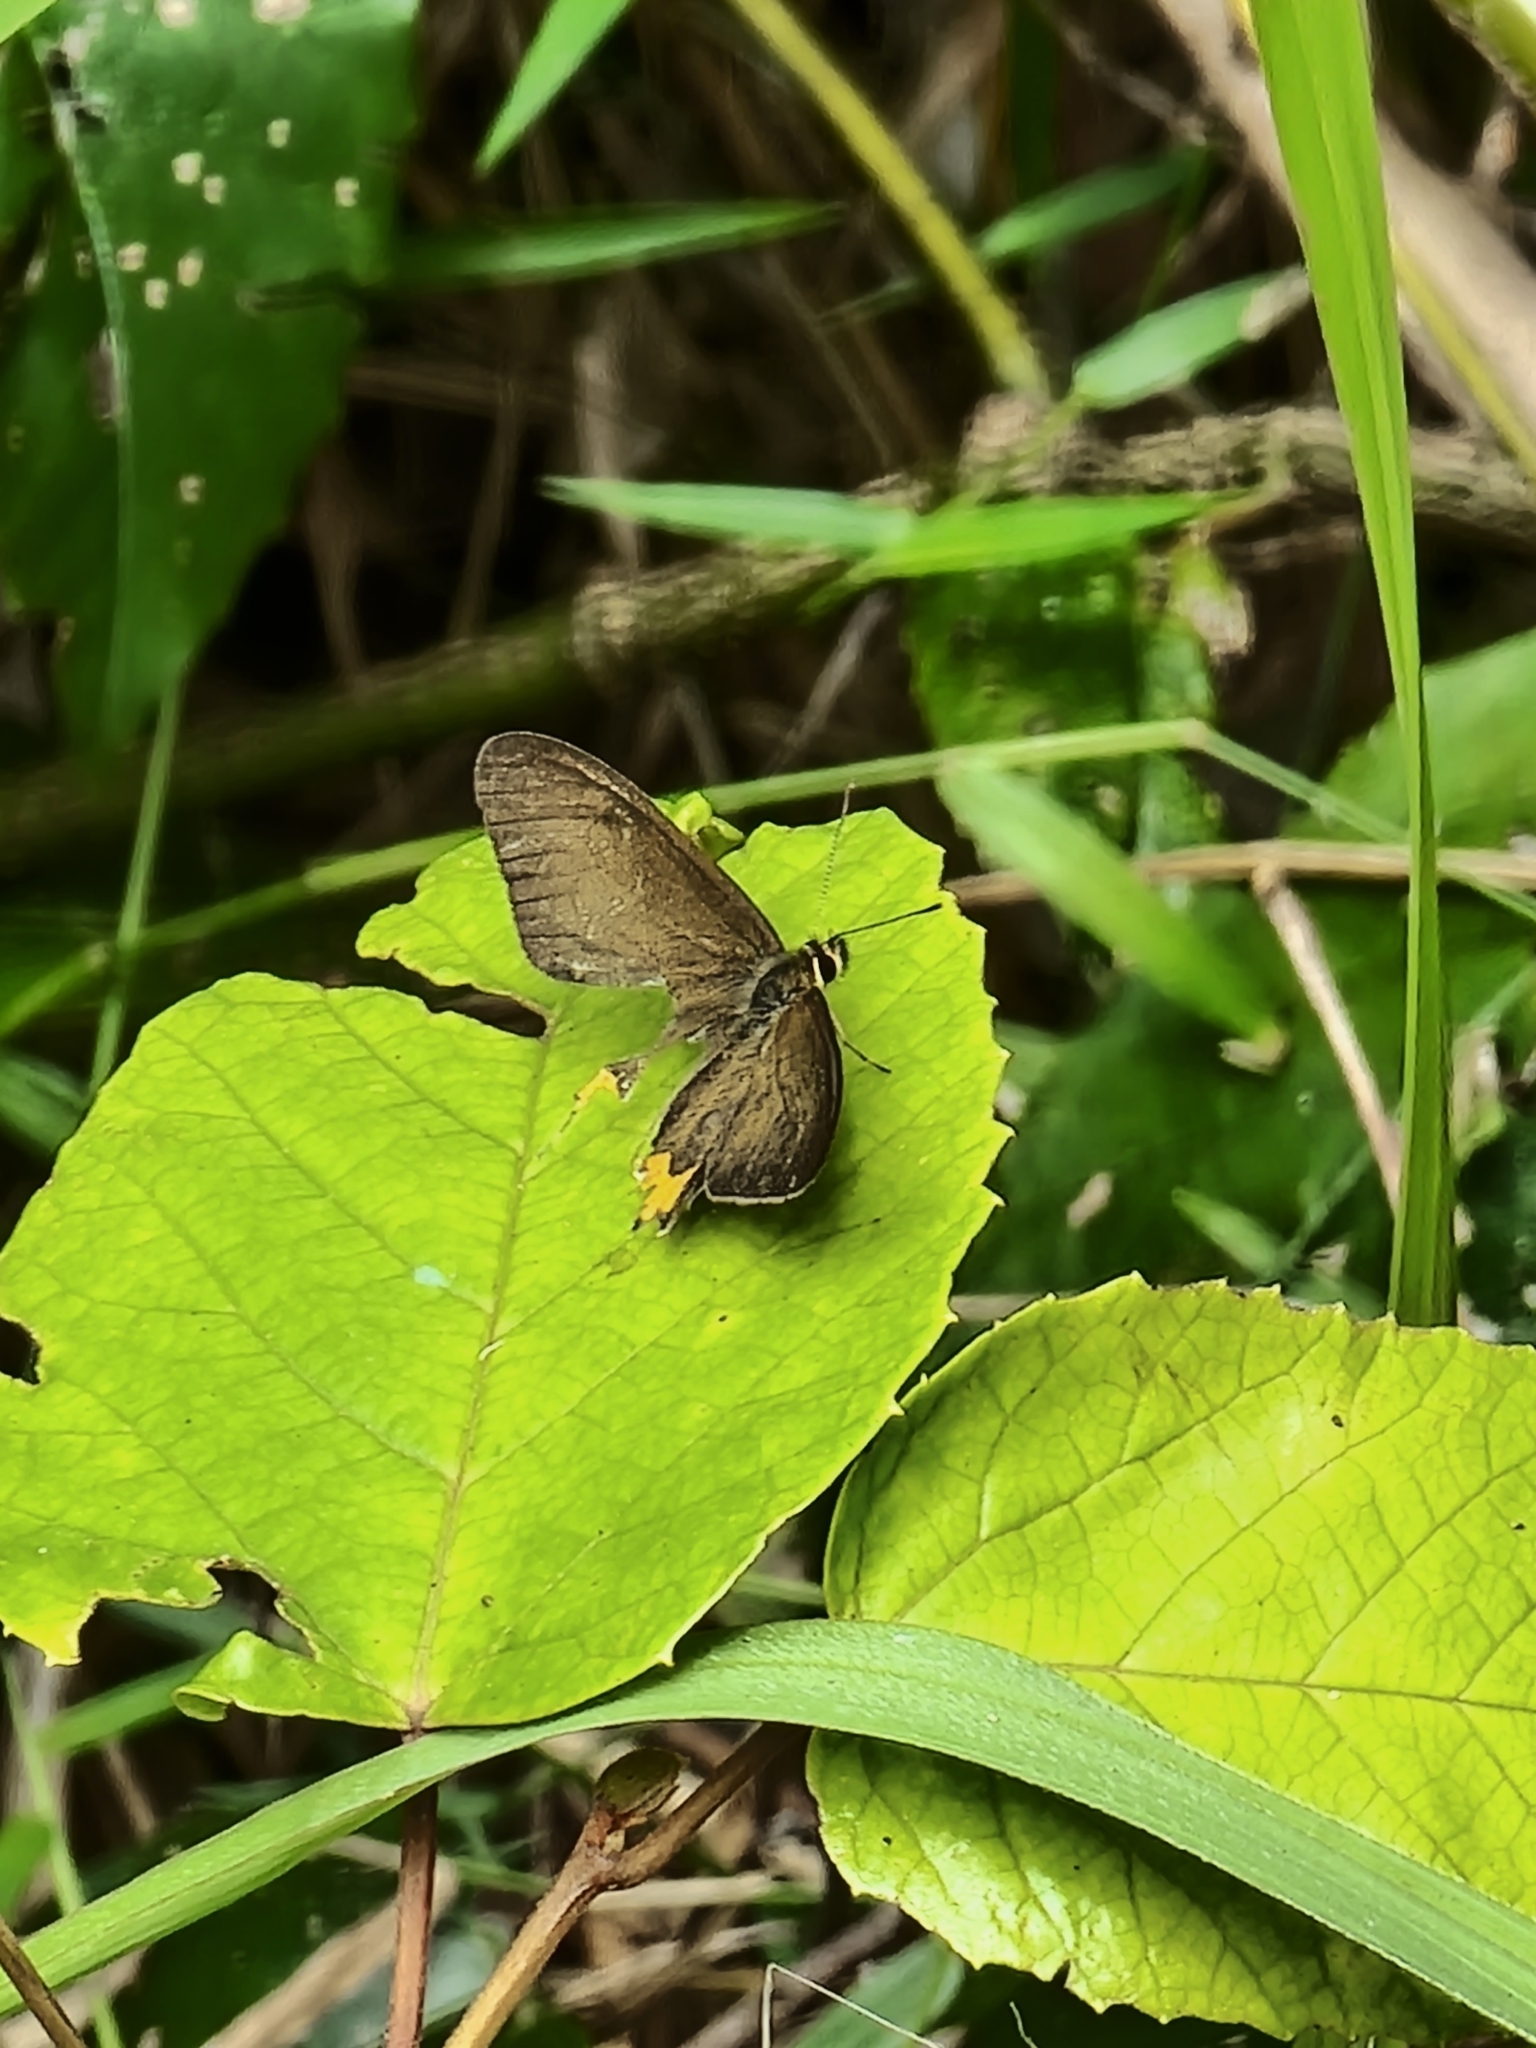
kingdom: Animalia
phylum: Arthropoda
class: Insecta
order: Lepidoptera
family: Nymphalidae
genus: Hypocysta
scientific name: Hypocysta metirius
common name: Brown ringlet
